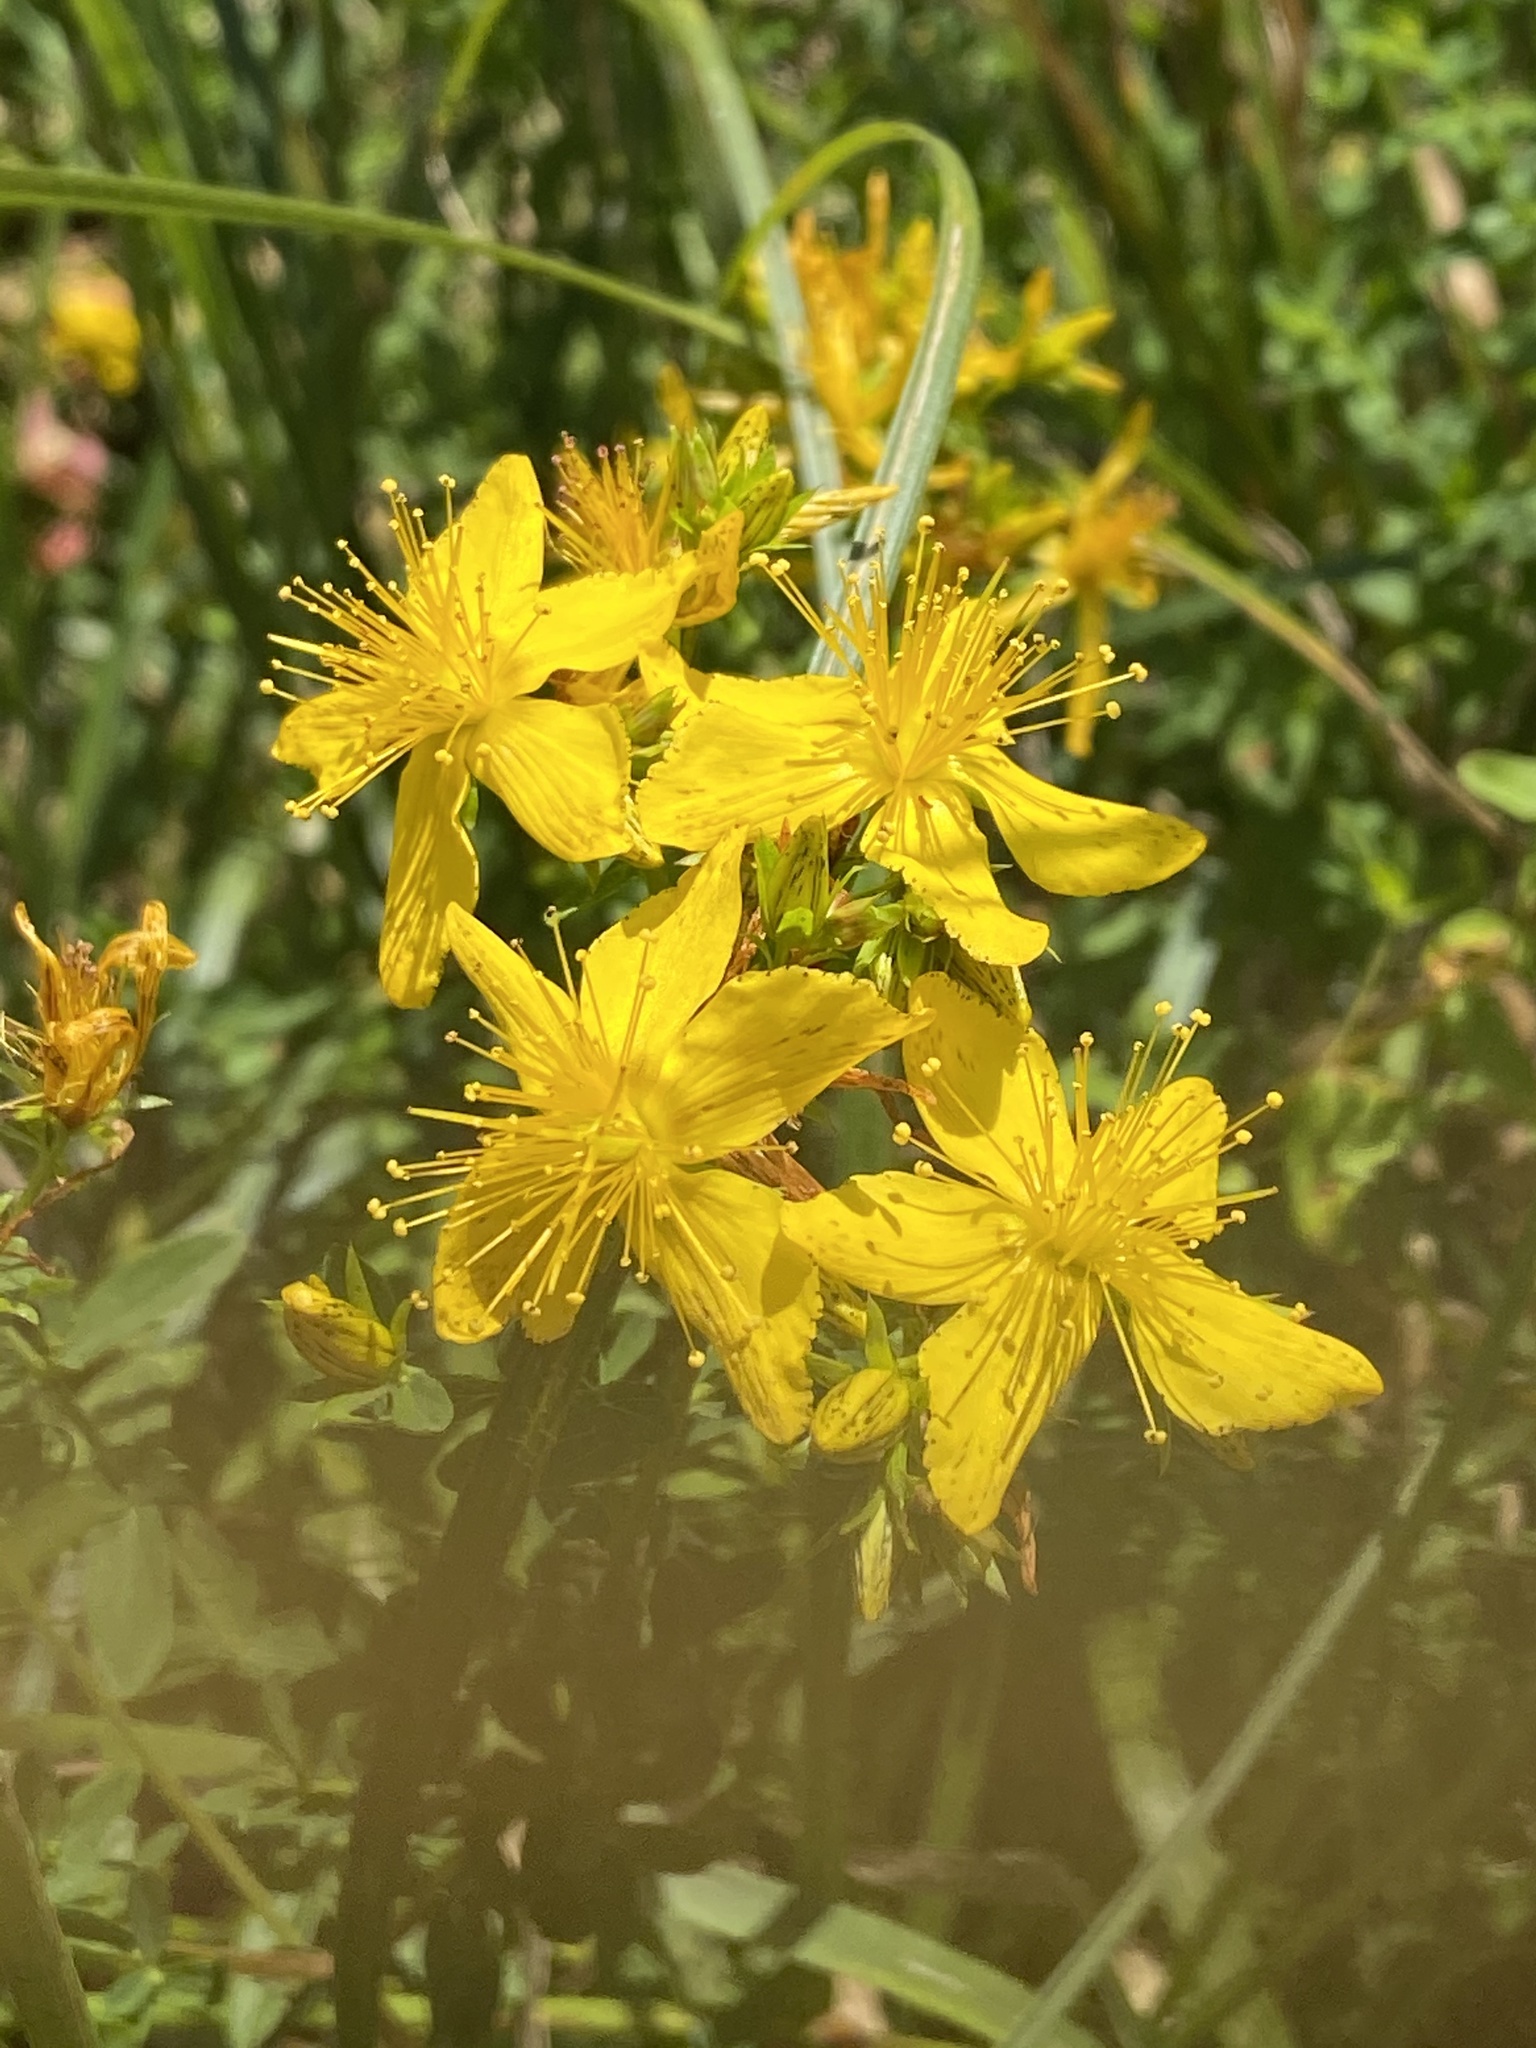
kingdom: Plantae
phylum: Tracheophyta
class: Magnoliopsida
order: Malpighiales
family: Hypericaceae
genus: Hypericum
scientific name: Hypericum perforatum
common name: Common st. johnswort
